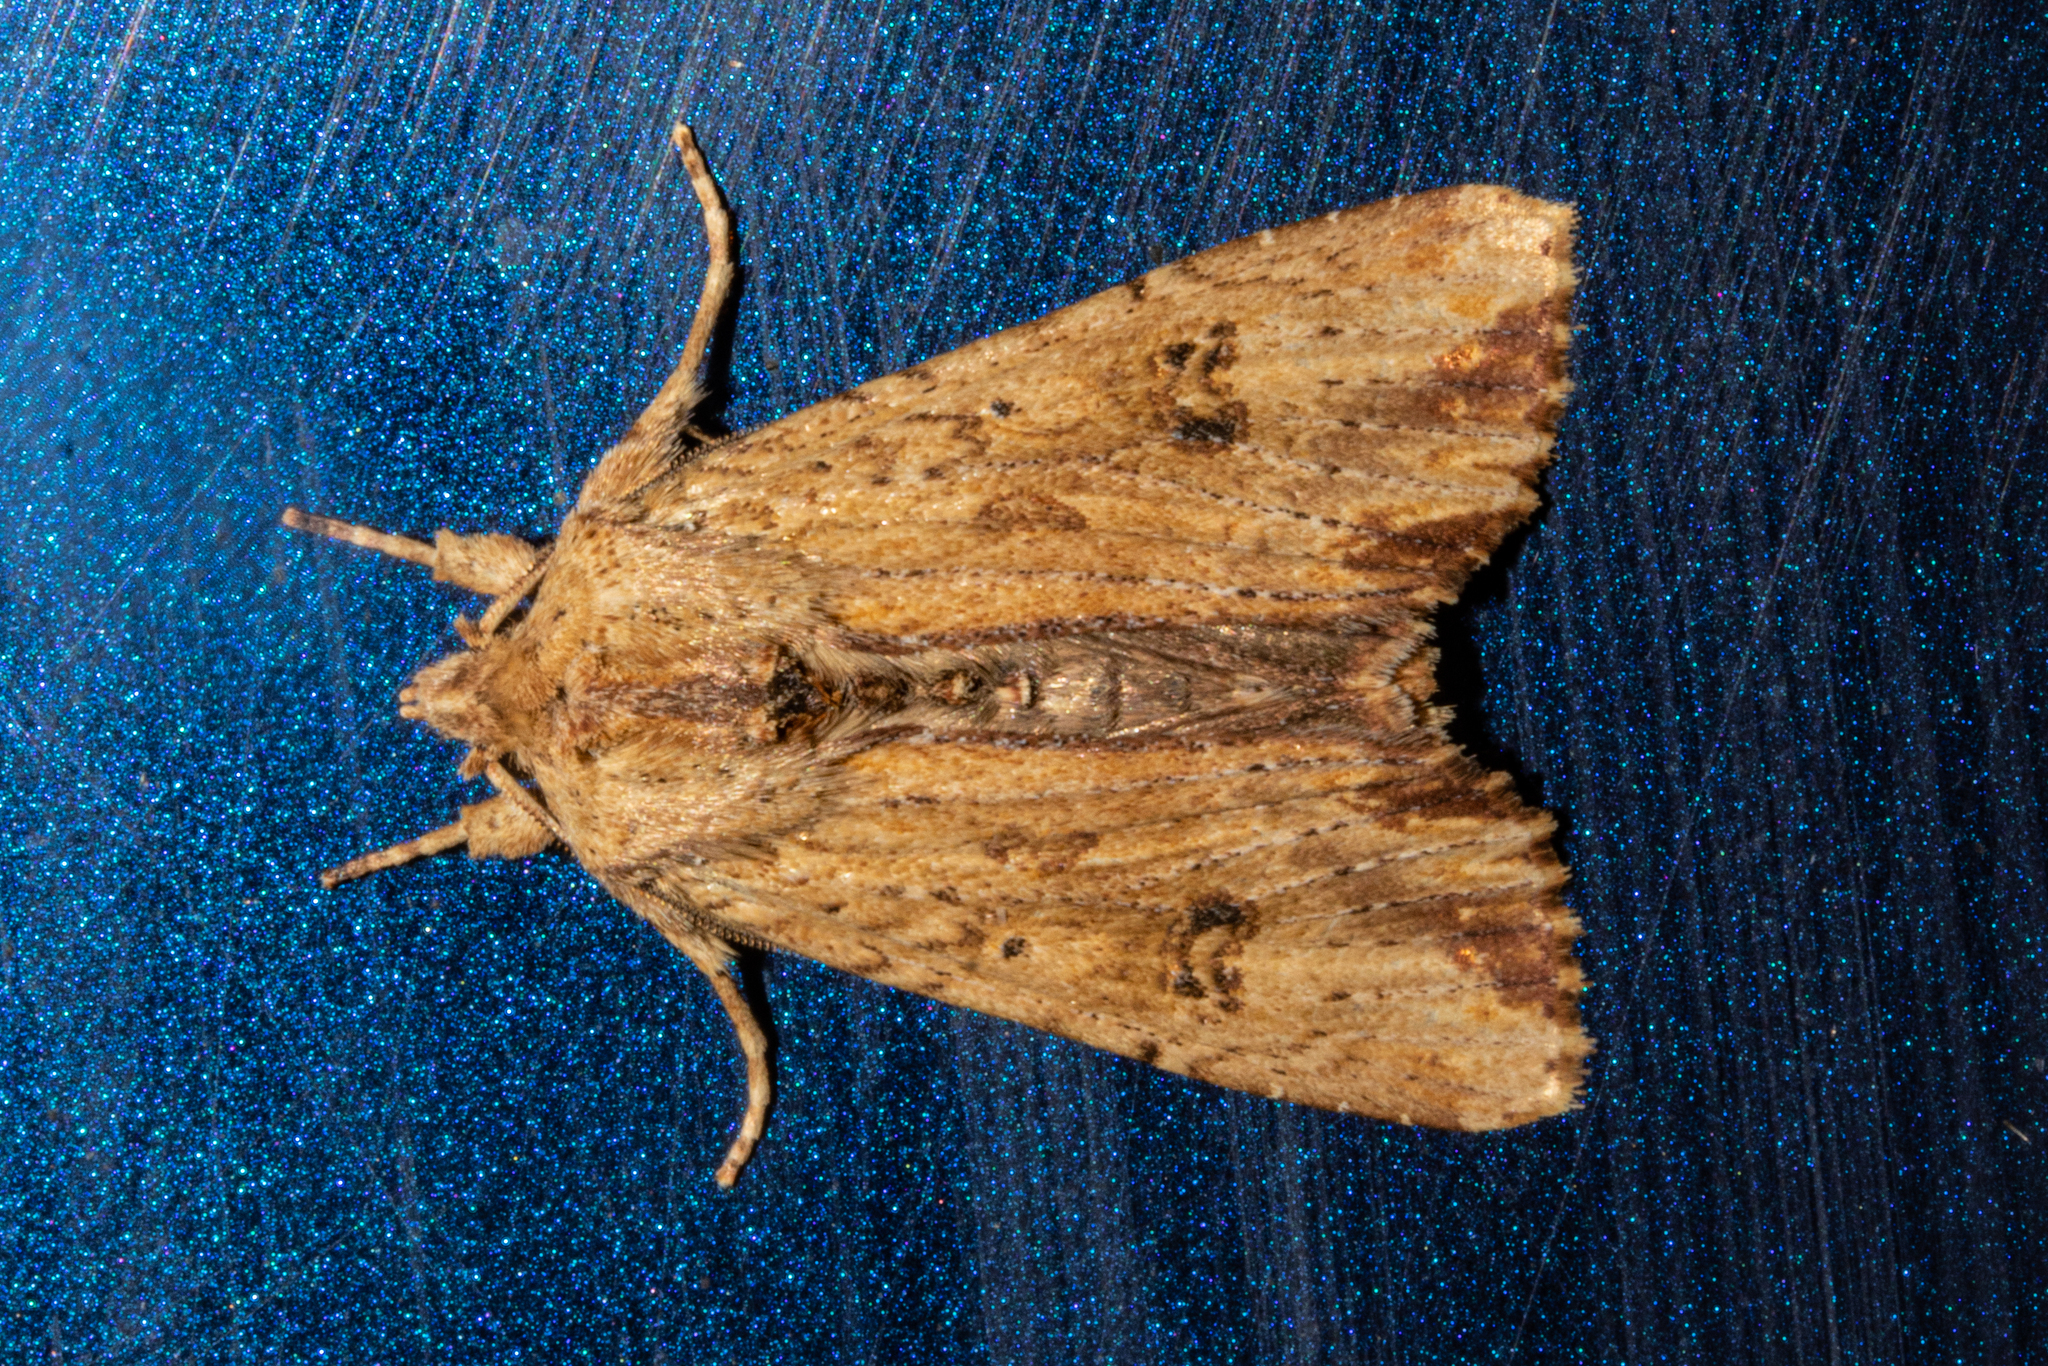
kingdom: Animalia
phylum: Arthropoda
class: Insecta
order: Lepidoptera
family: Noctuidae
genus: Ichneutica
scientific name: Ichneutica
